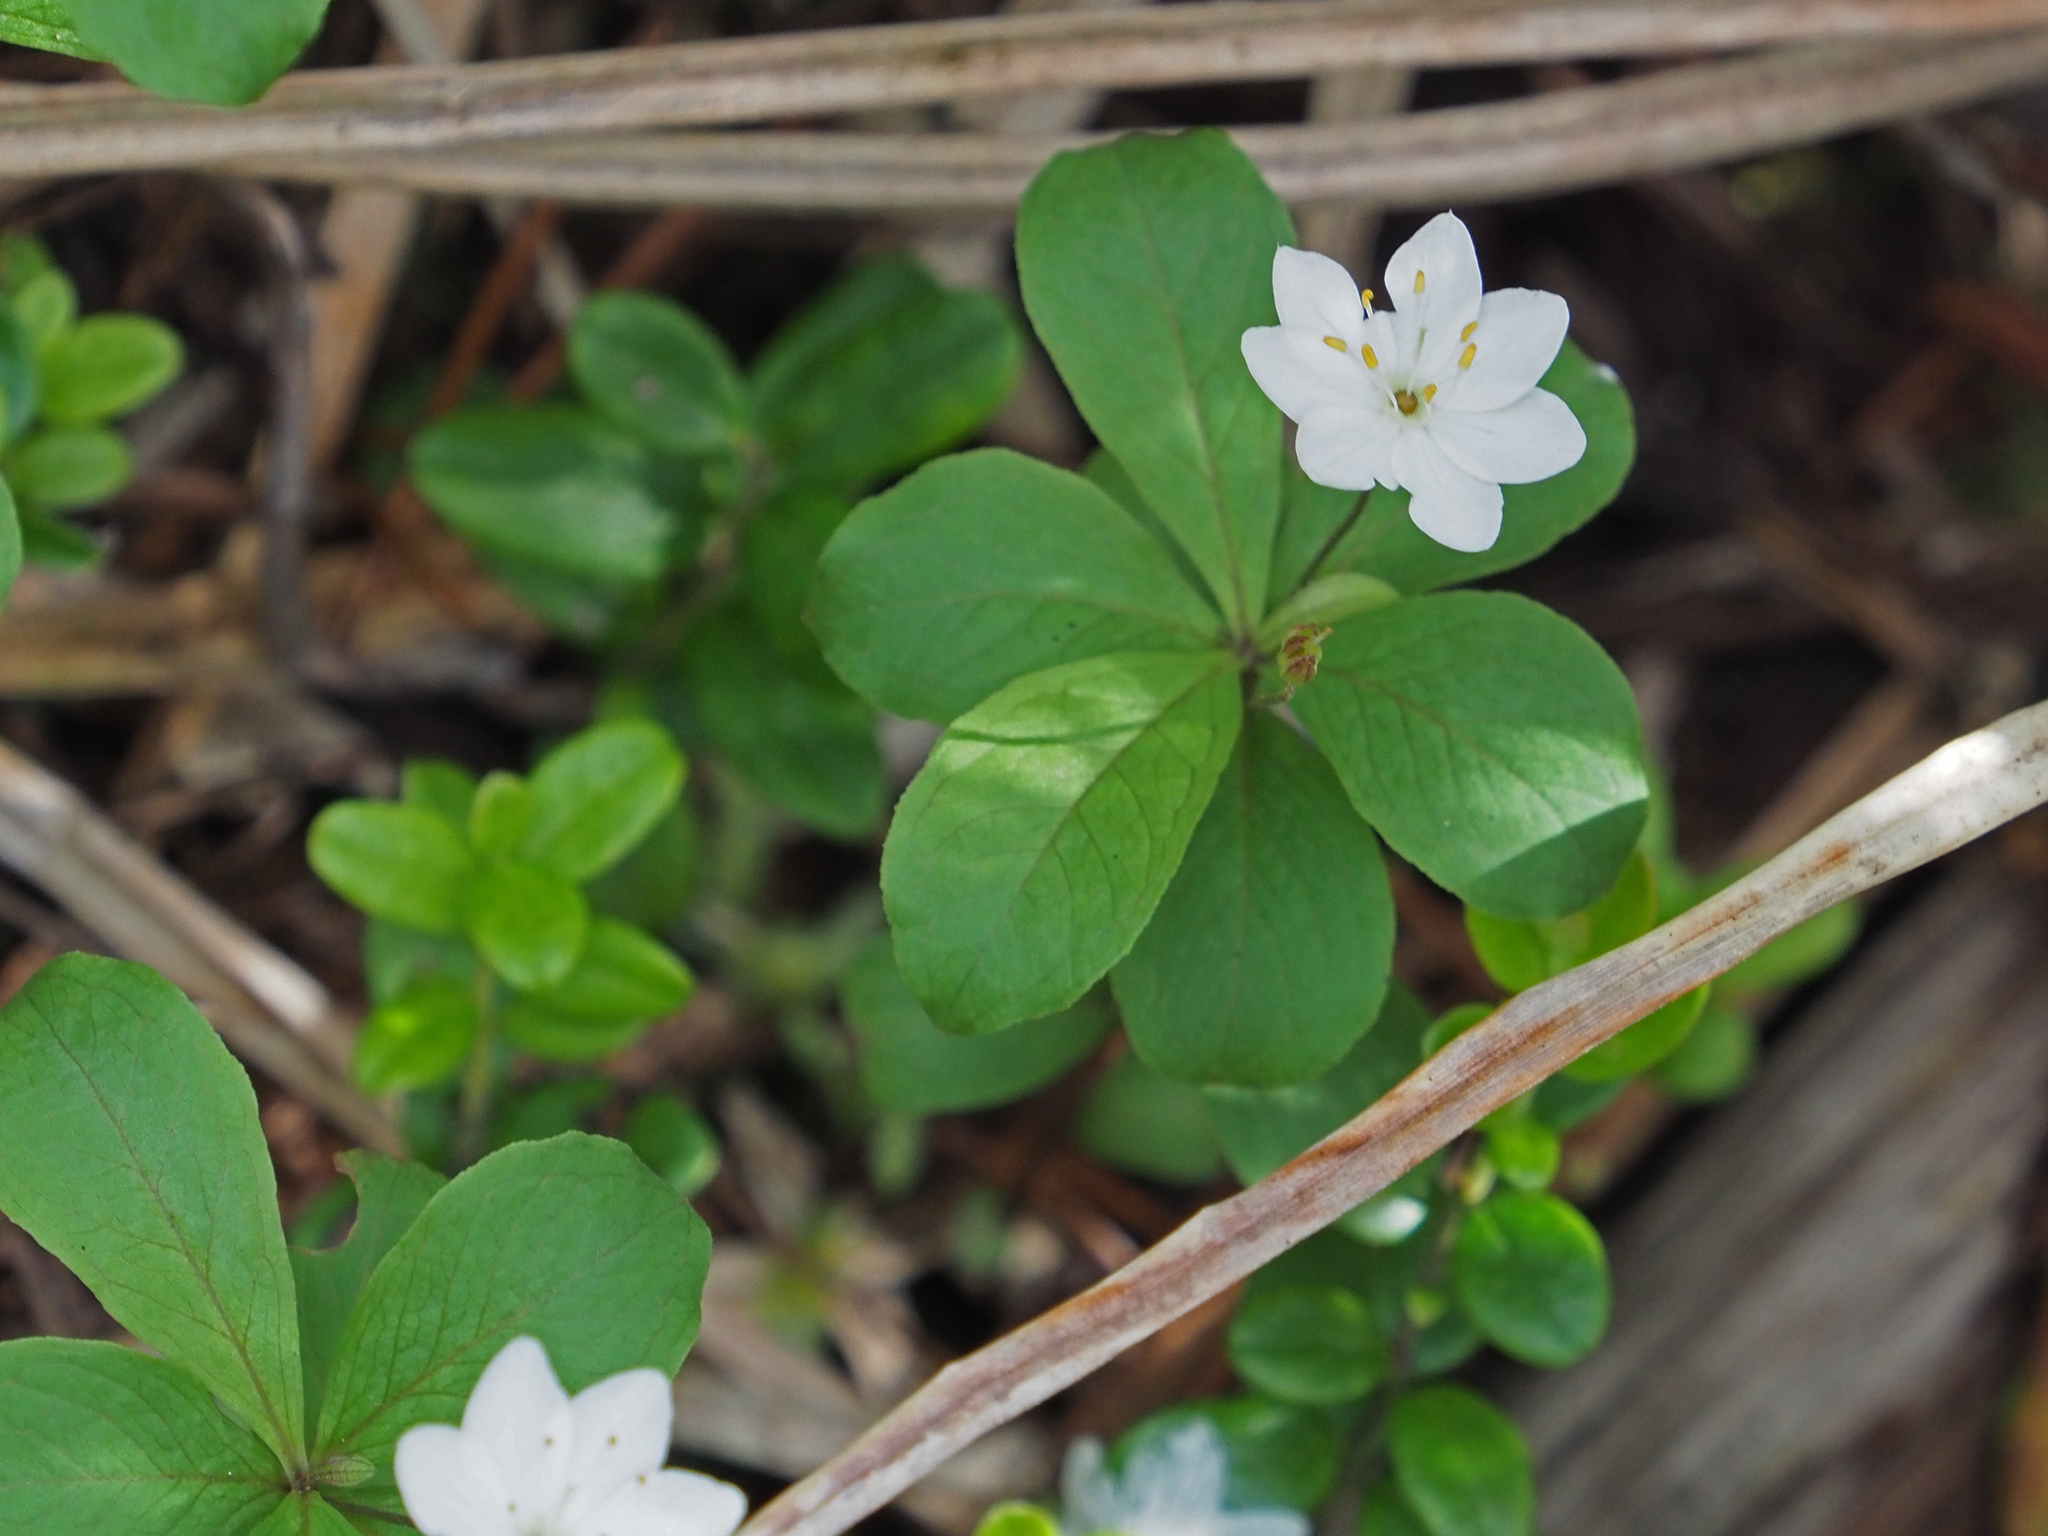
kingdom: Plantae
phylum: Tracheophyta
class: Magnoliopsida
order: Ericales
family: Primulaceae
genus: Lysimachia
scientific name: Lysimachia europaea
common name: Arctic starflower
